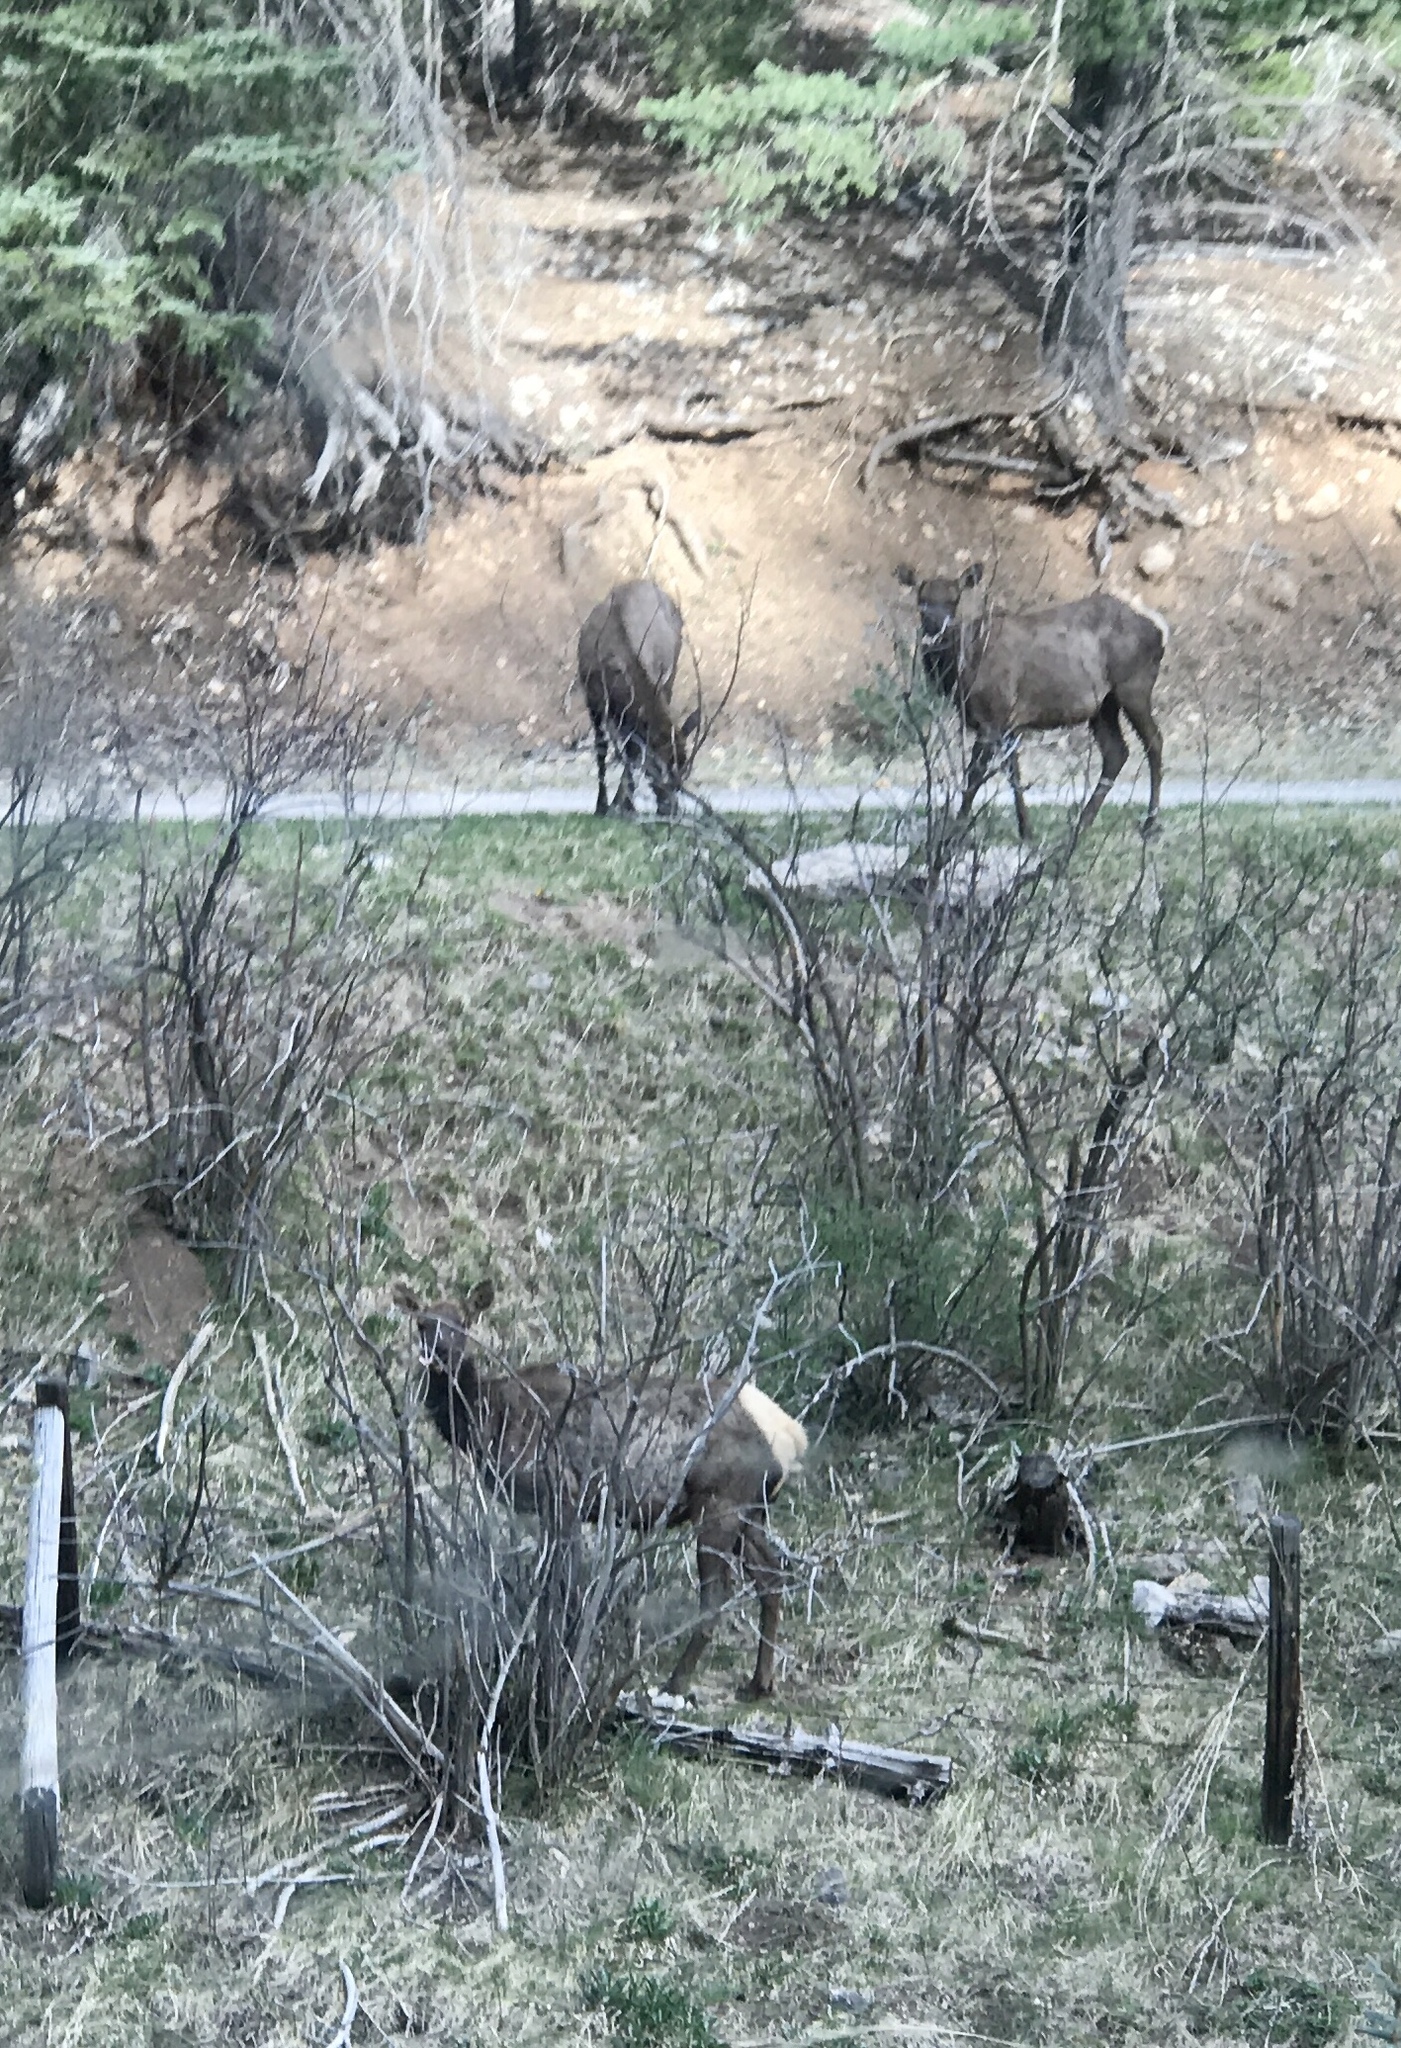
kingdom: Animalia
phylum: Chordata
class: Mammalia
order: Artiodactyla
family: Cervidae
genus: Cervus
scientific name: Cervus elaphus
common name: Red deer
